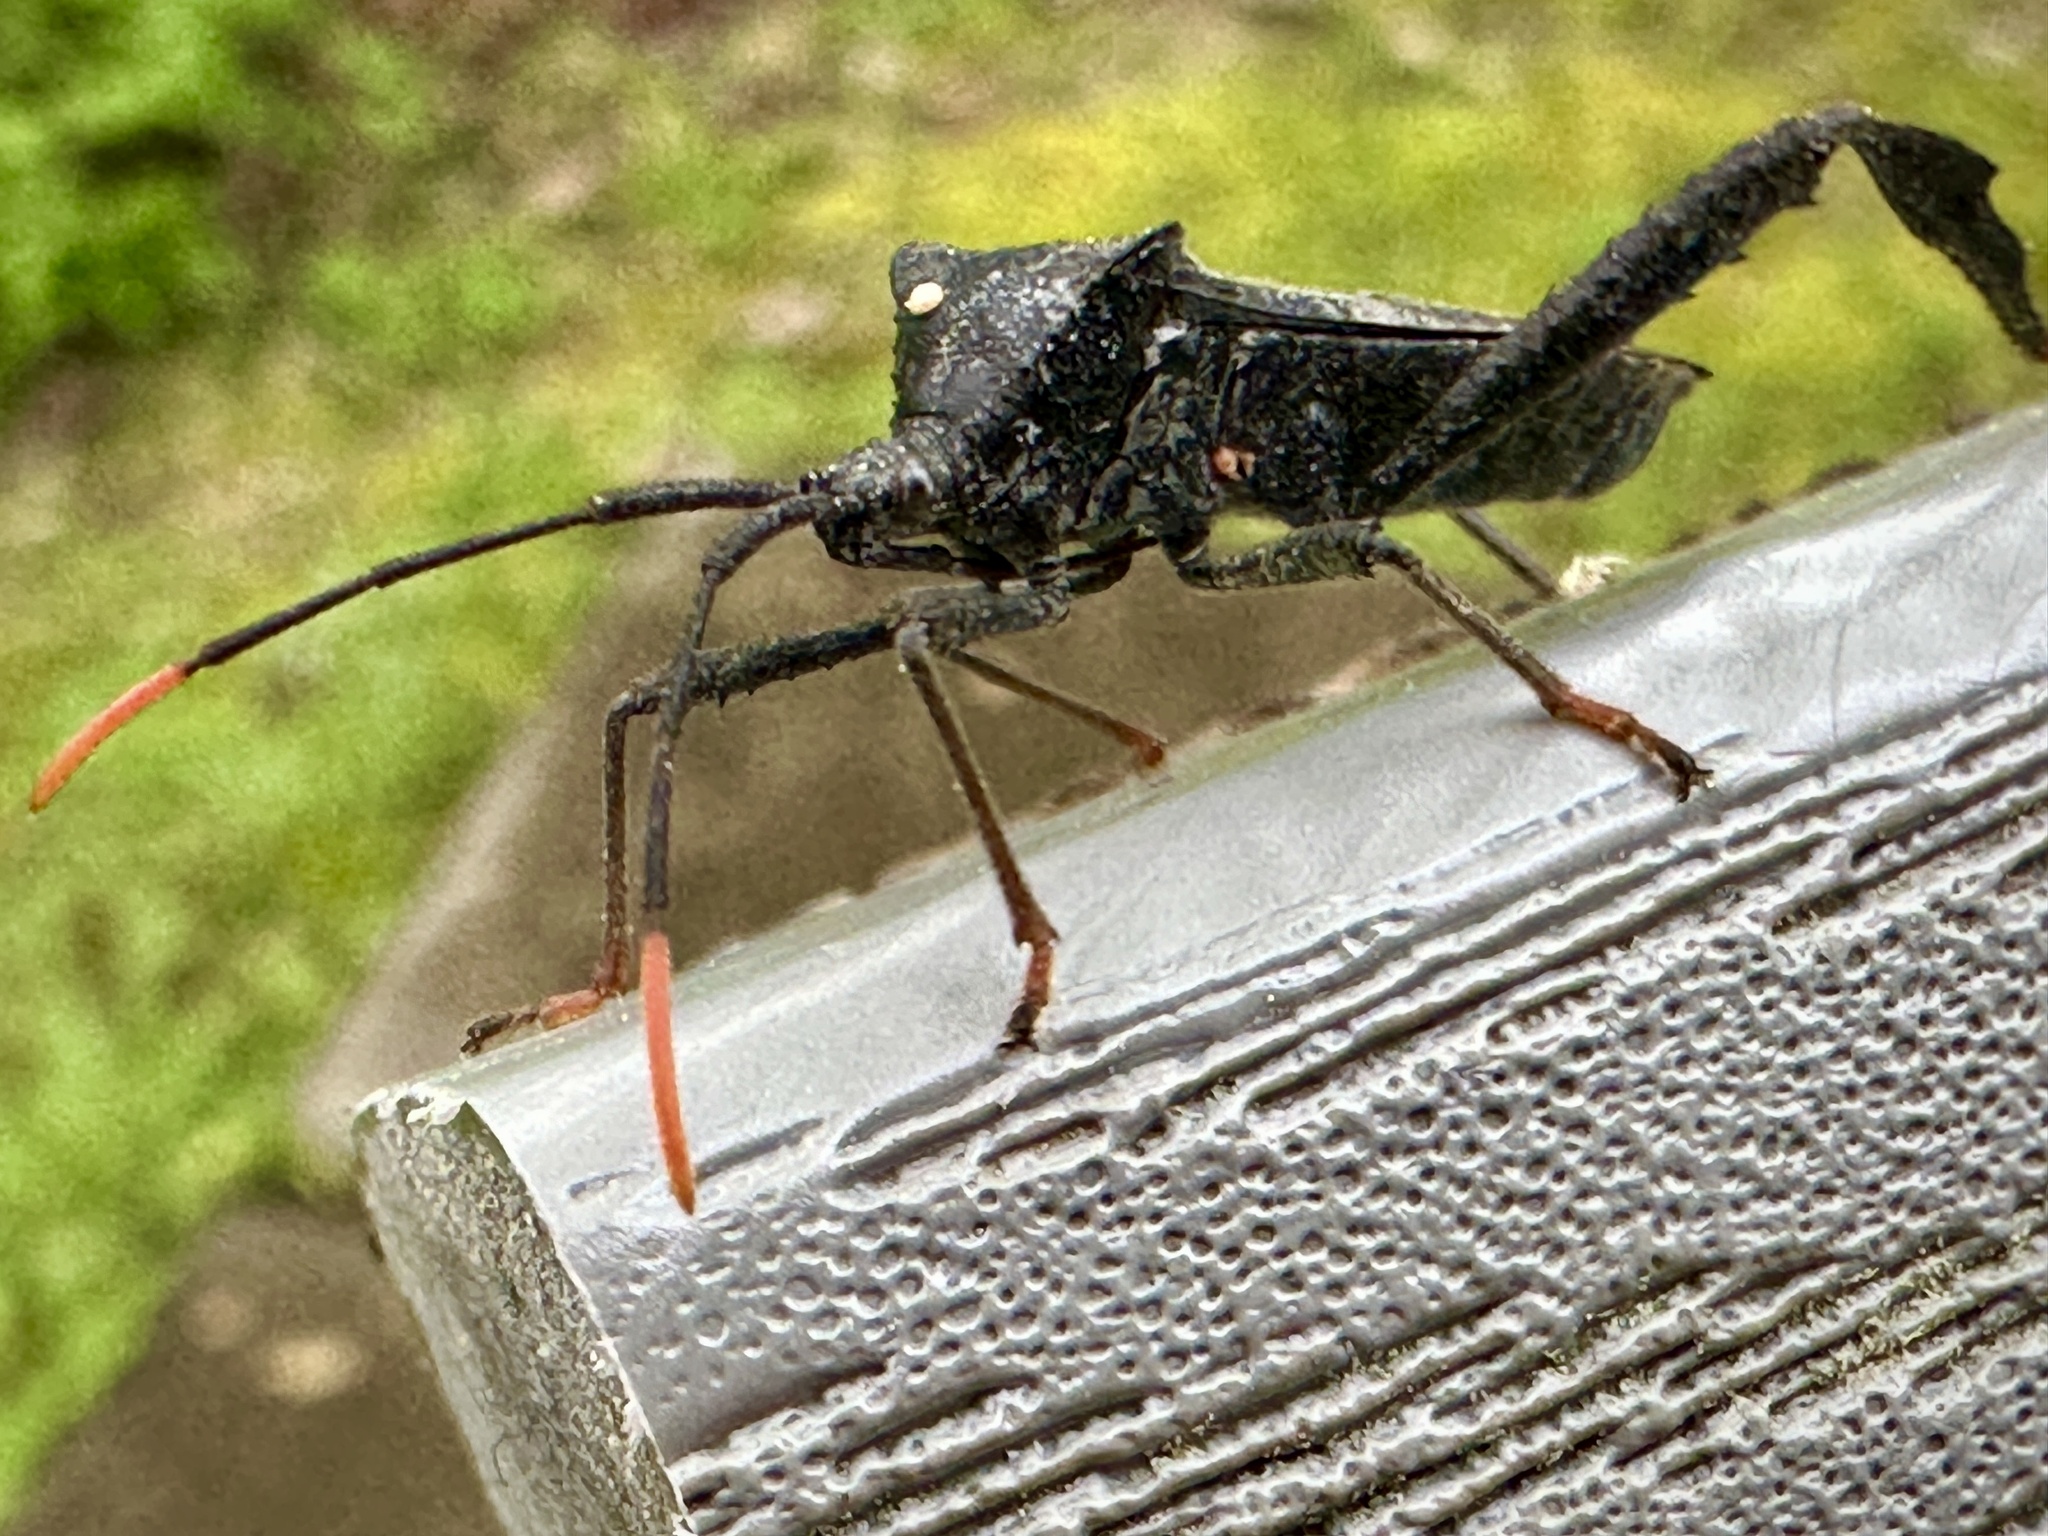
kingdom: Animalia
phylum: Arthropoda
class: Insecta
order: Hemiptera
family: Coreidae
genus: Acanthocephala
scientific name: Acanthocephala terminalis
